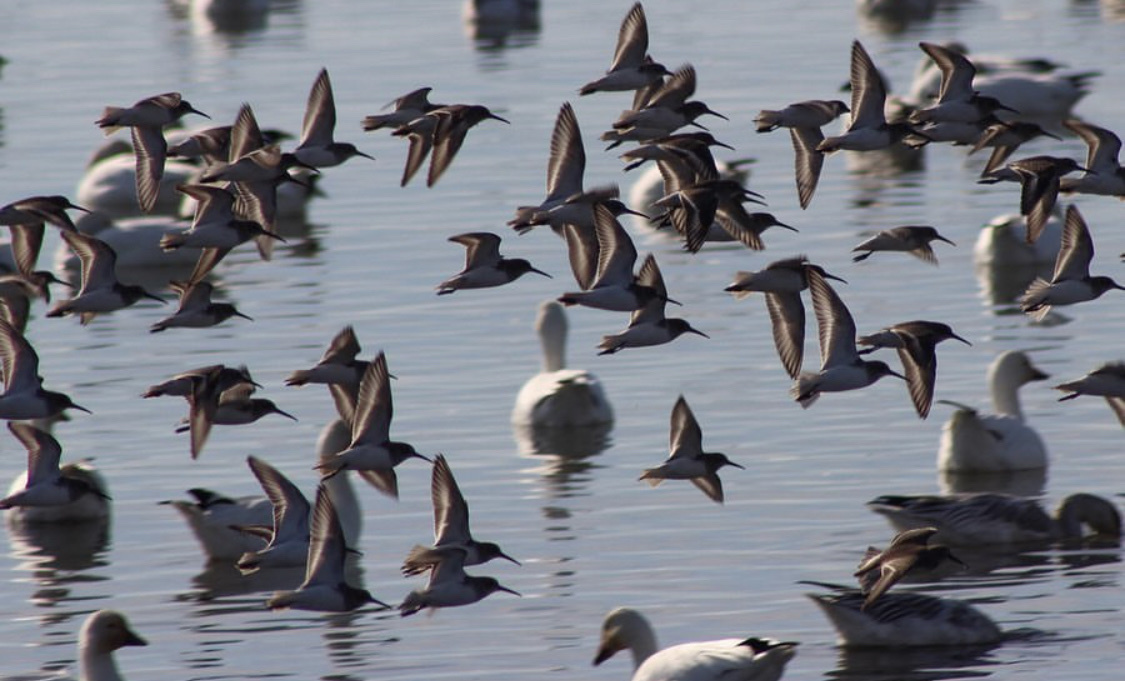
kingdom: Animalia
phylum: Chordata
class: Aves
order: Charadriiformes
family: Scolopacidae
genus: Calidris
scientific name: Calidris alpina
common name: Dunlin
